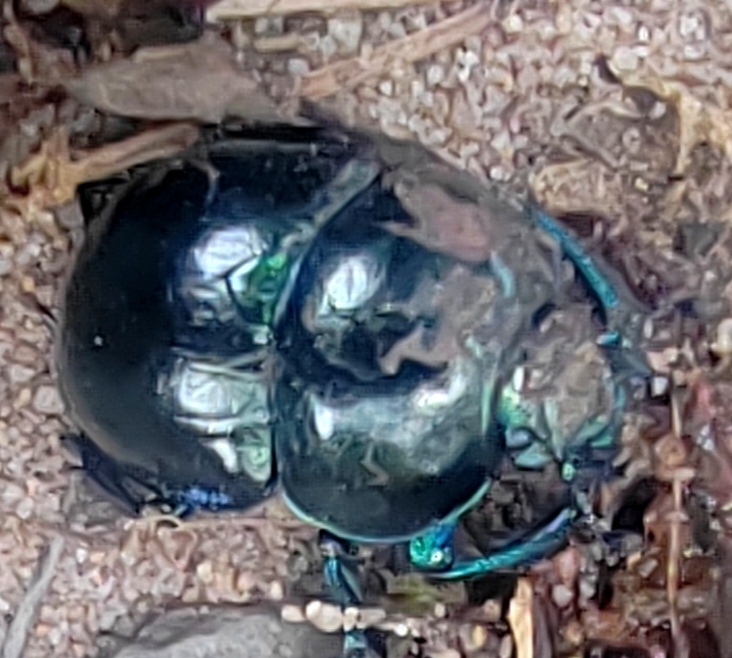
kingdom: Animalia
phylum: Arthropoda
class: Insecta
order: Coleoptera
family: Geotrupidae
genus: Trypocopris
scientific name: Trypocopris vernalis
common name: Spring dumbledor
